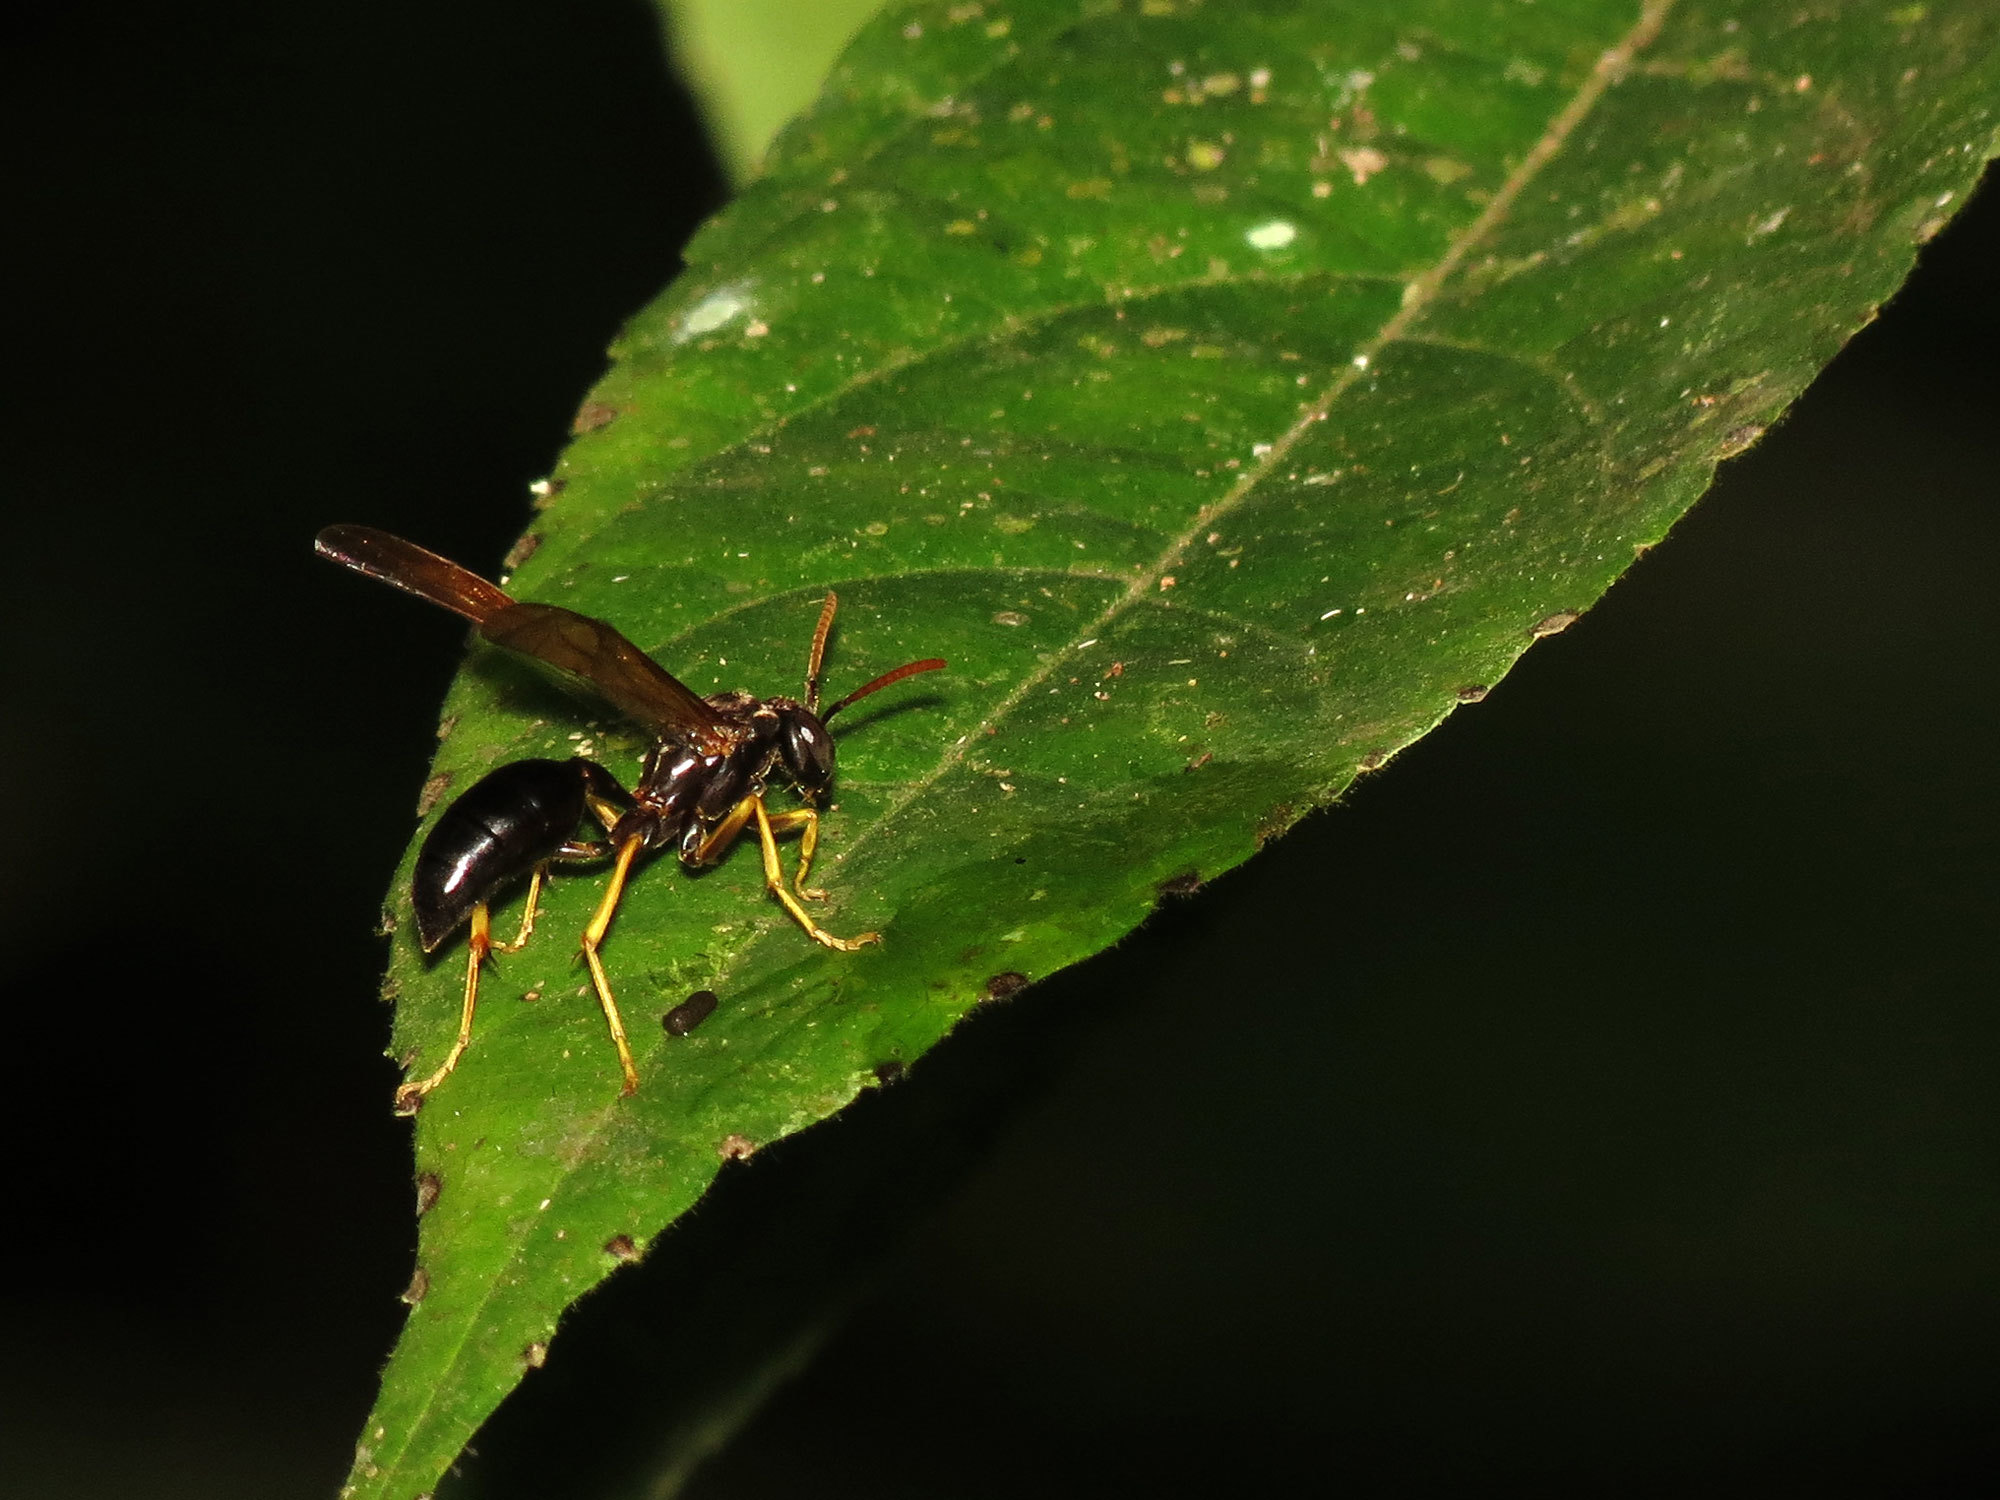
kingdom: Animalia
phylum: Arthropoda
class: Insecta
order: Hymenoptera
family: Vespidae
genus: Agelaia
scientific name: Agelaia xanthopus
